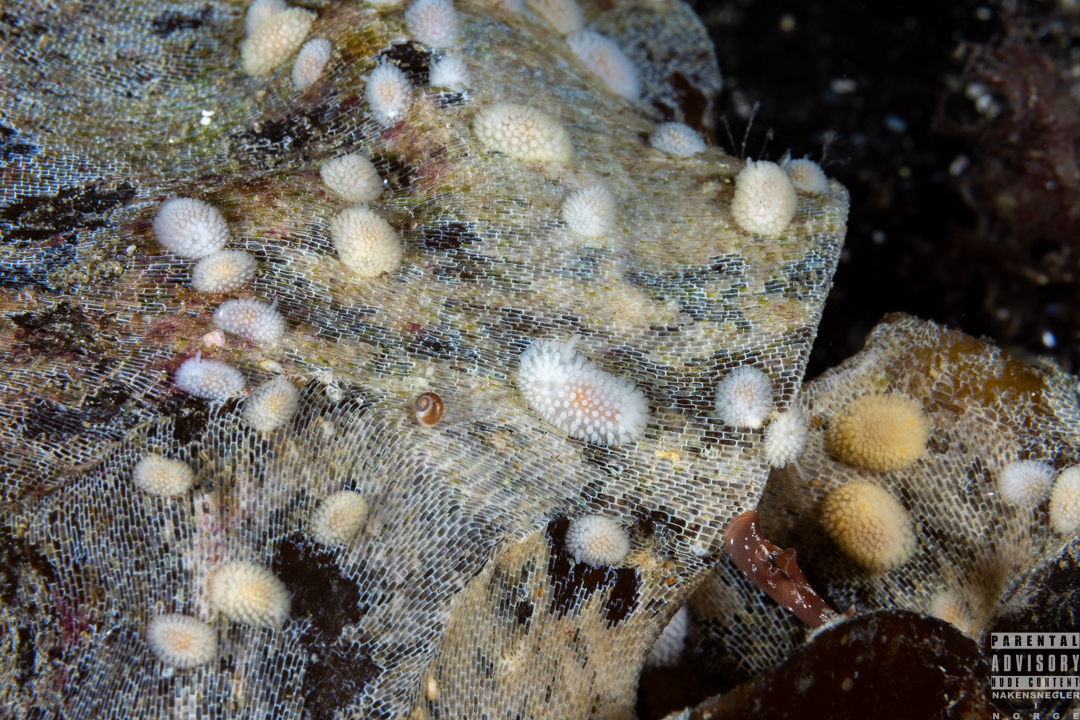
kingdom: Animalia
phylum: Mollusca
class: Gastropoda
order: Nudibranchia
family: Onchidorididae
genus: Onchidoris
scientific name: Onchidoris muricata
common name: Rough doris
